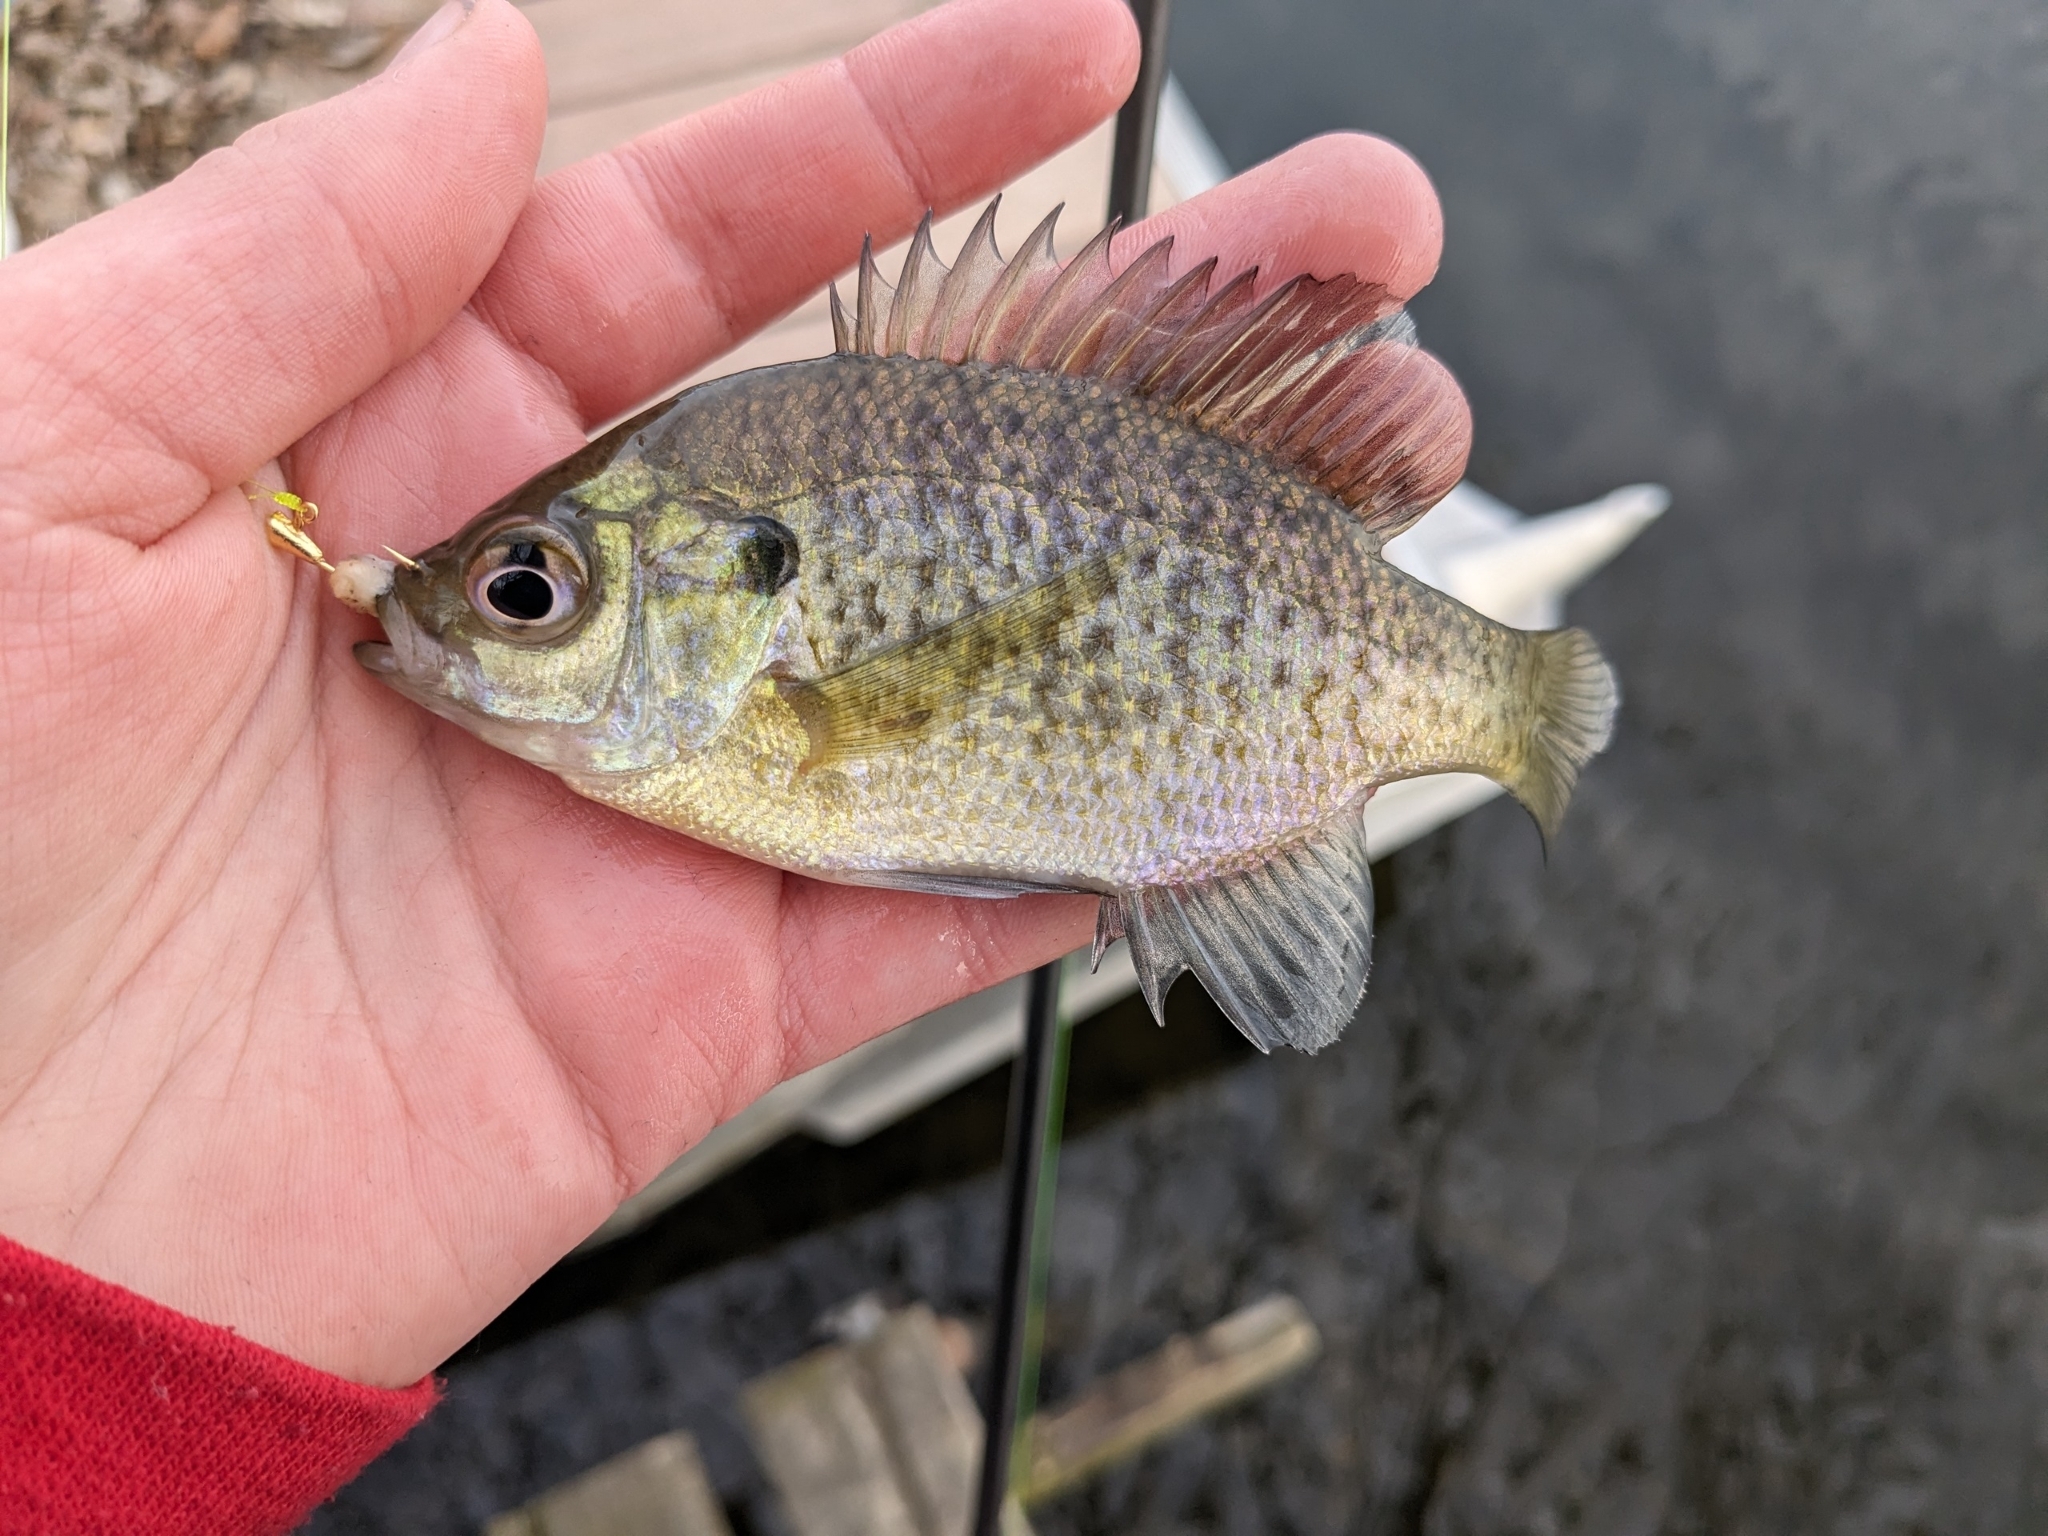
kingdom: Animalia
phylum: Chordata
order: Perciformes
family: Centrarchidae
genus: Lepomis
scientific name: Lepomis macrochirus
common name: Bluegill
